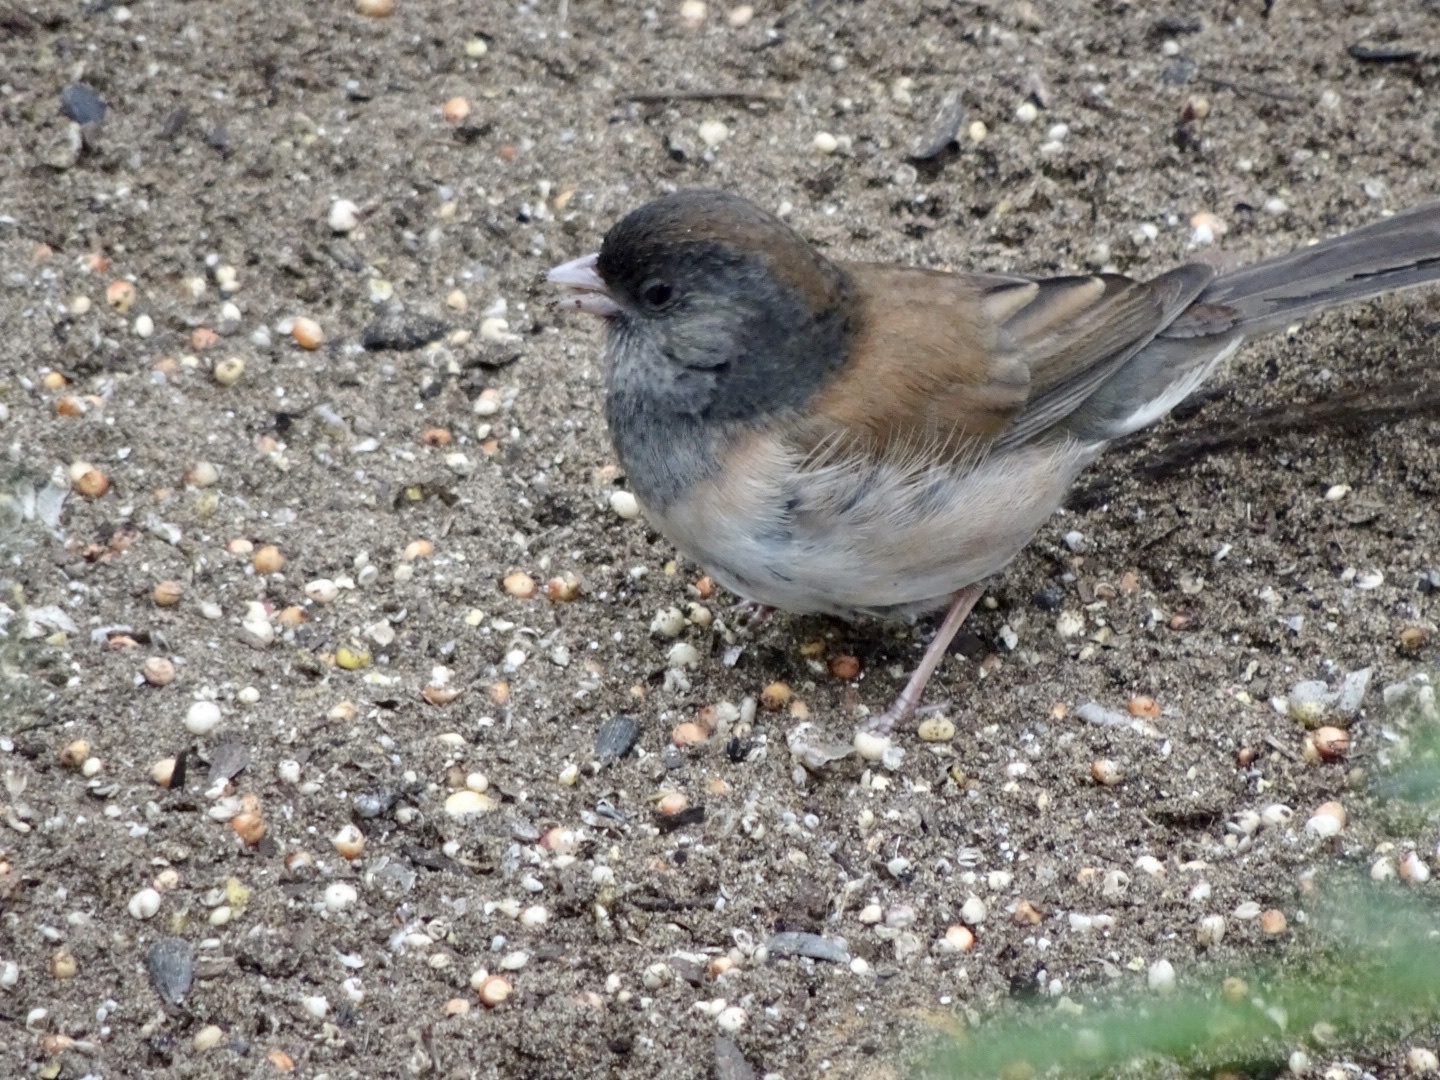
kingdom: Animalia
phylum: Chordata
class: Aves
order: Passeriformes
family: Passerellidae
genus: Junco
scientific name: Junco hyemalis
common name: Dark-eyed junco
